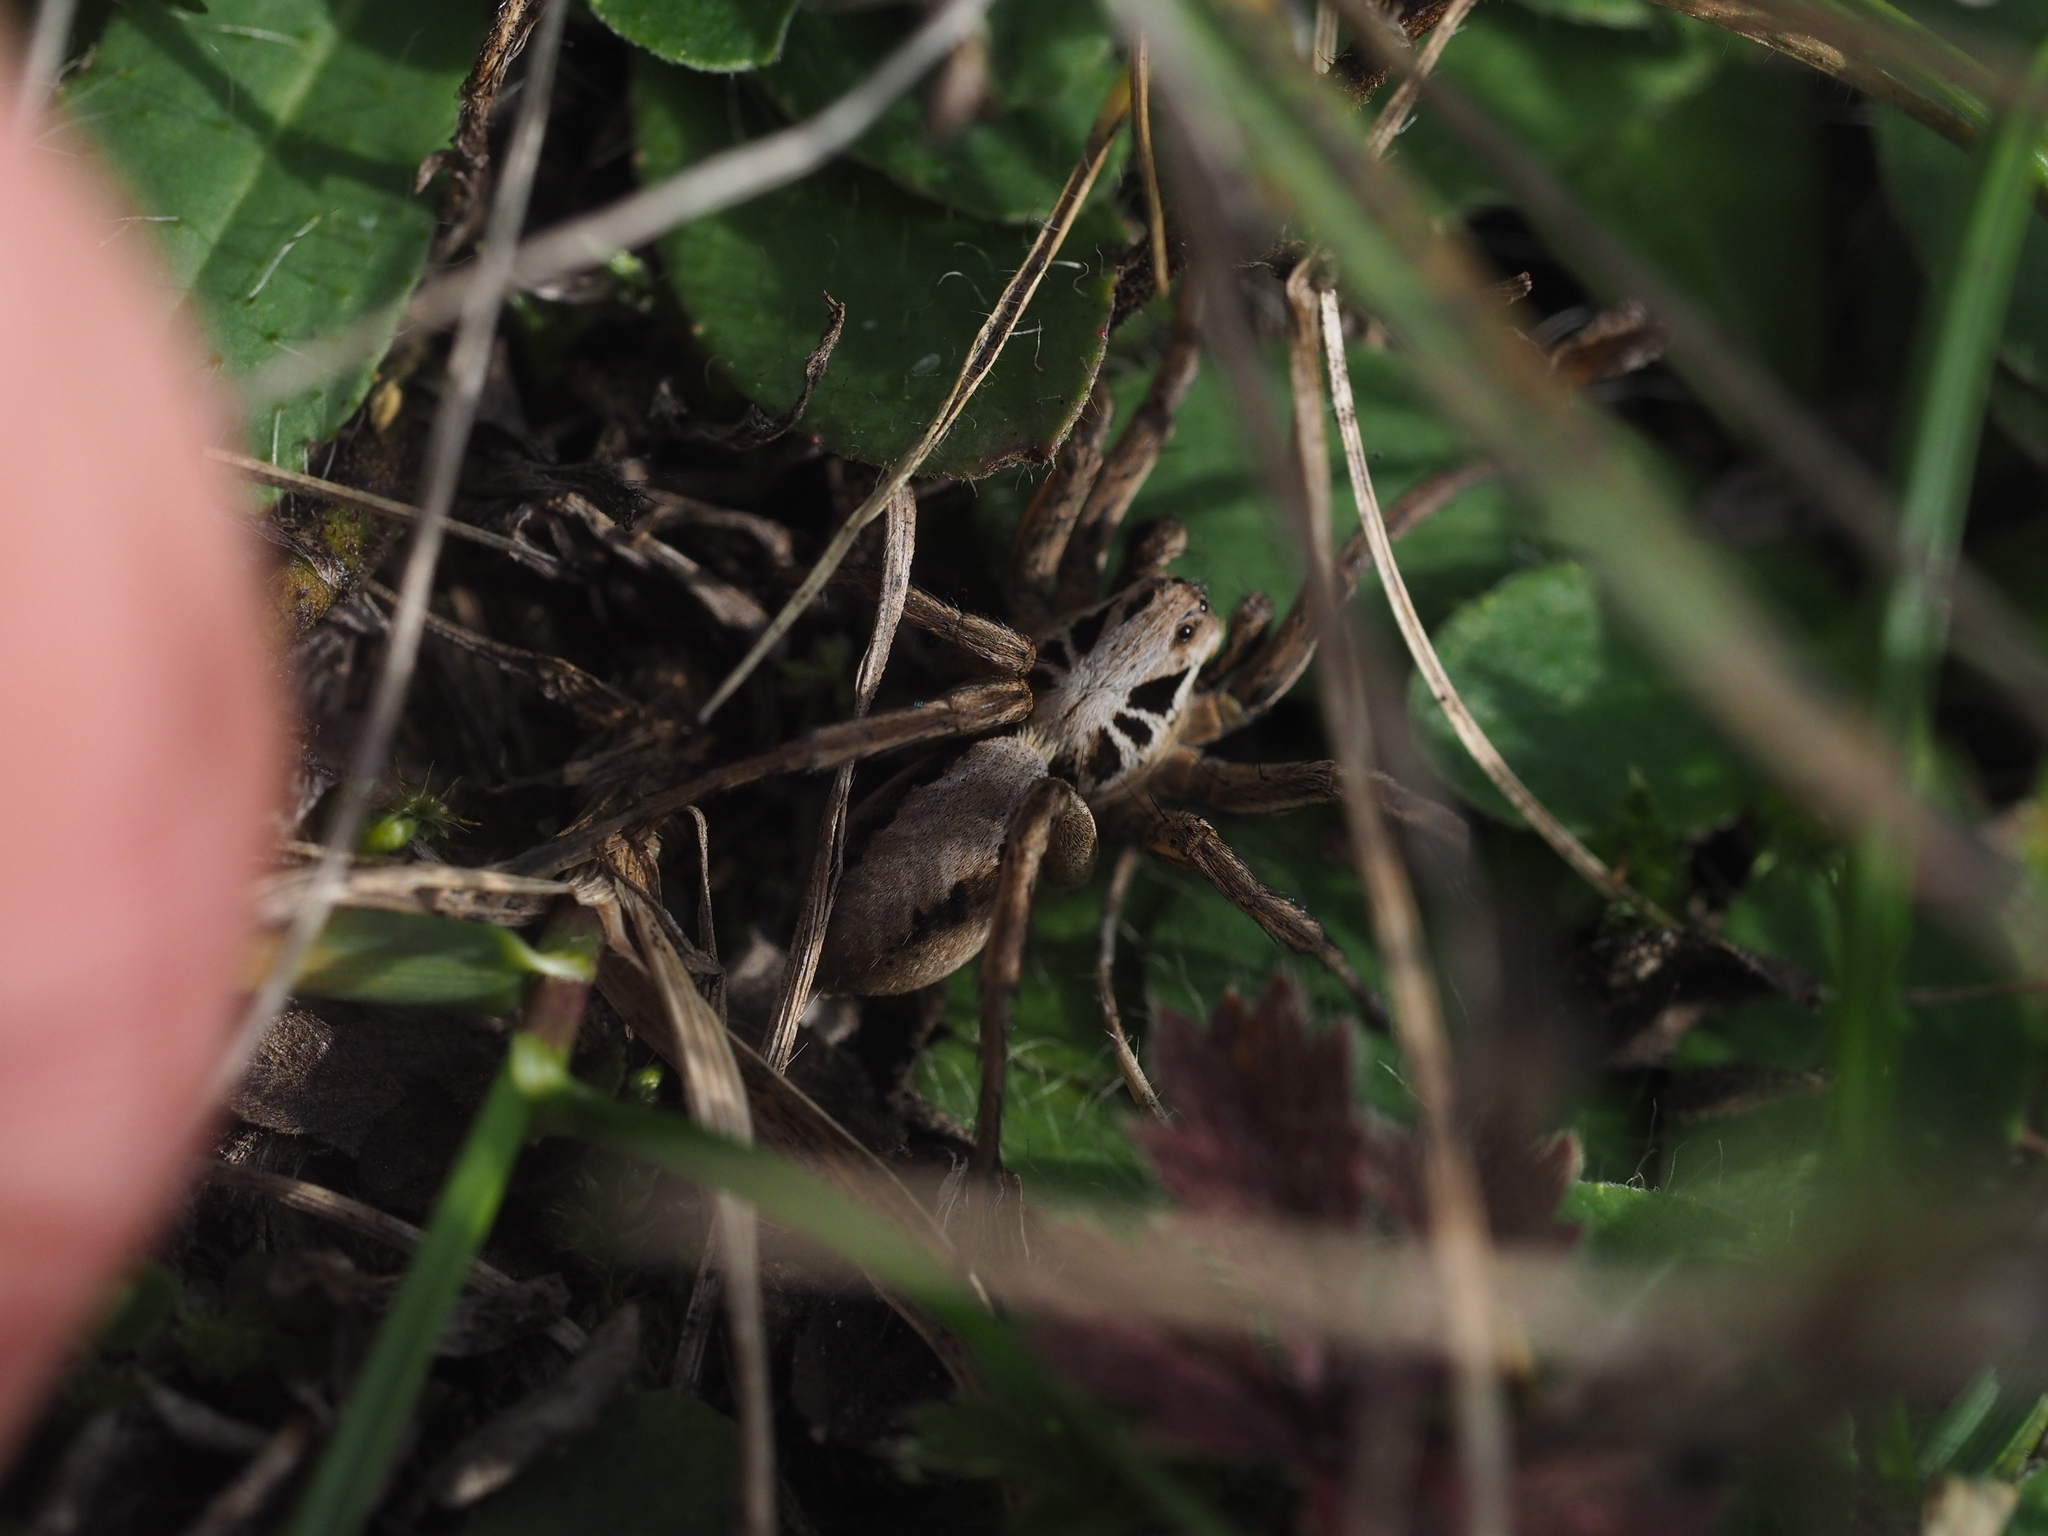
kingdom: Animalia
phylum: Arthropoda
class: Arachnida
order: Araneae
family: Lycosidae
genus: Alopecosa
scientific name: Alopecosa striatipes
